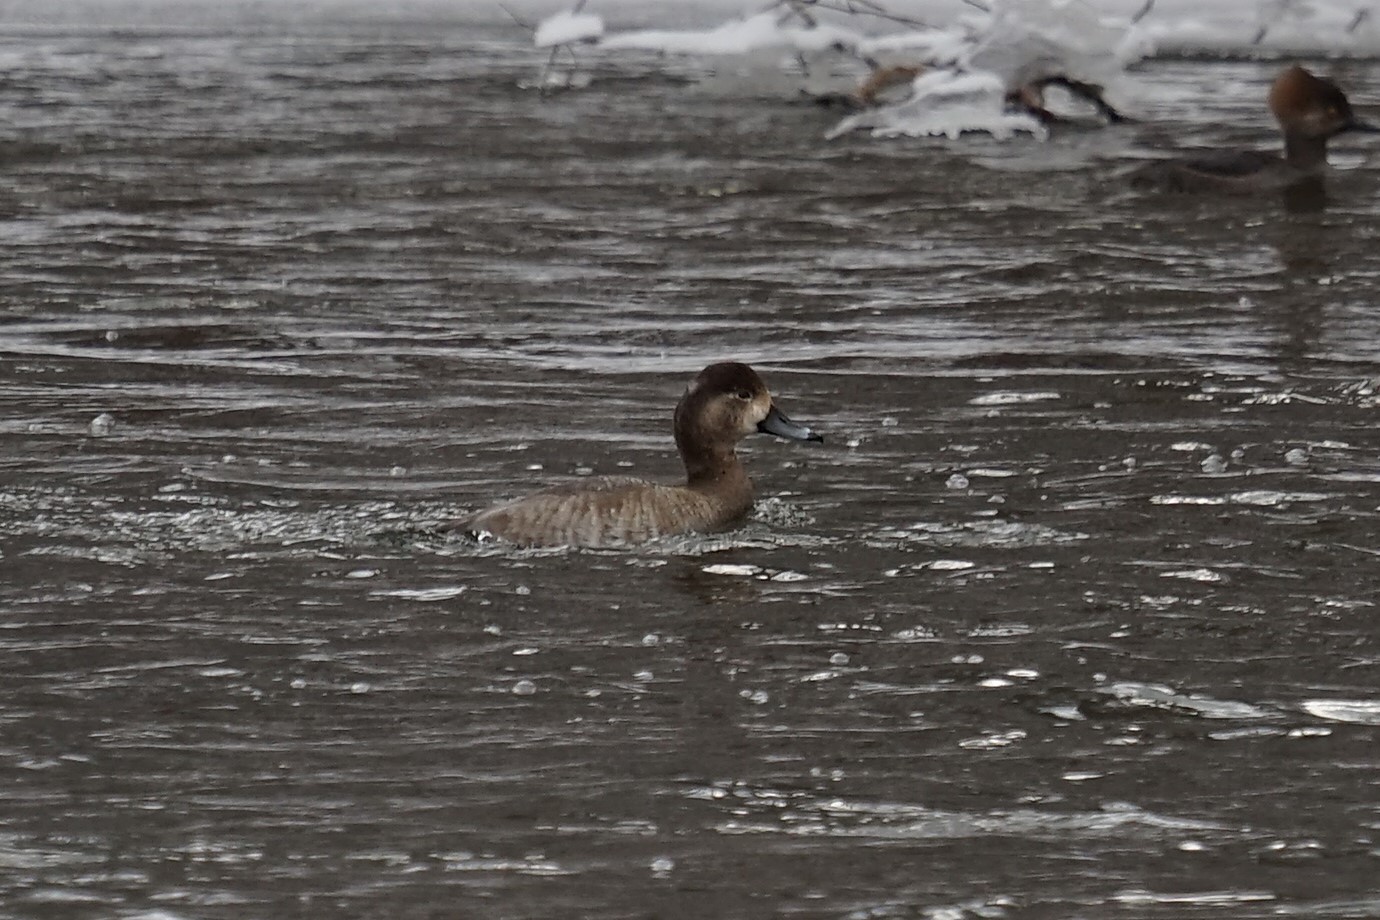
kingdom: Animalia
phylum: Chordata
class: Aves
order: Anseriformes
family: Anatidae
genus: Aythya
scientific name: Aythya americana
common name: Redhead
